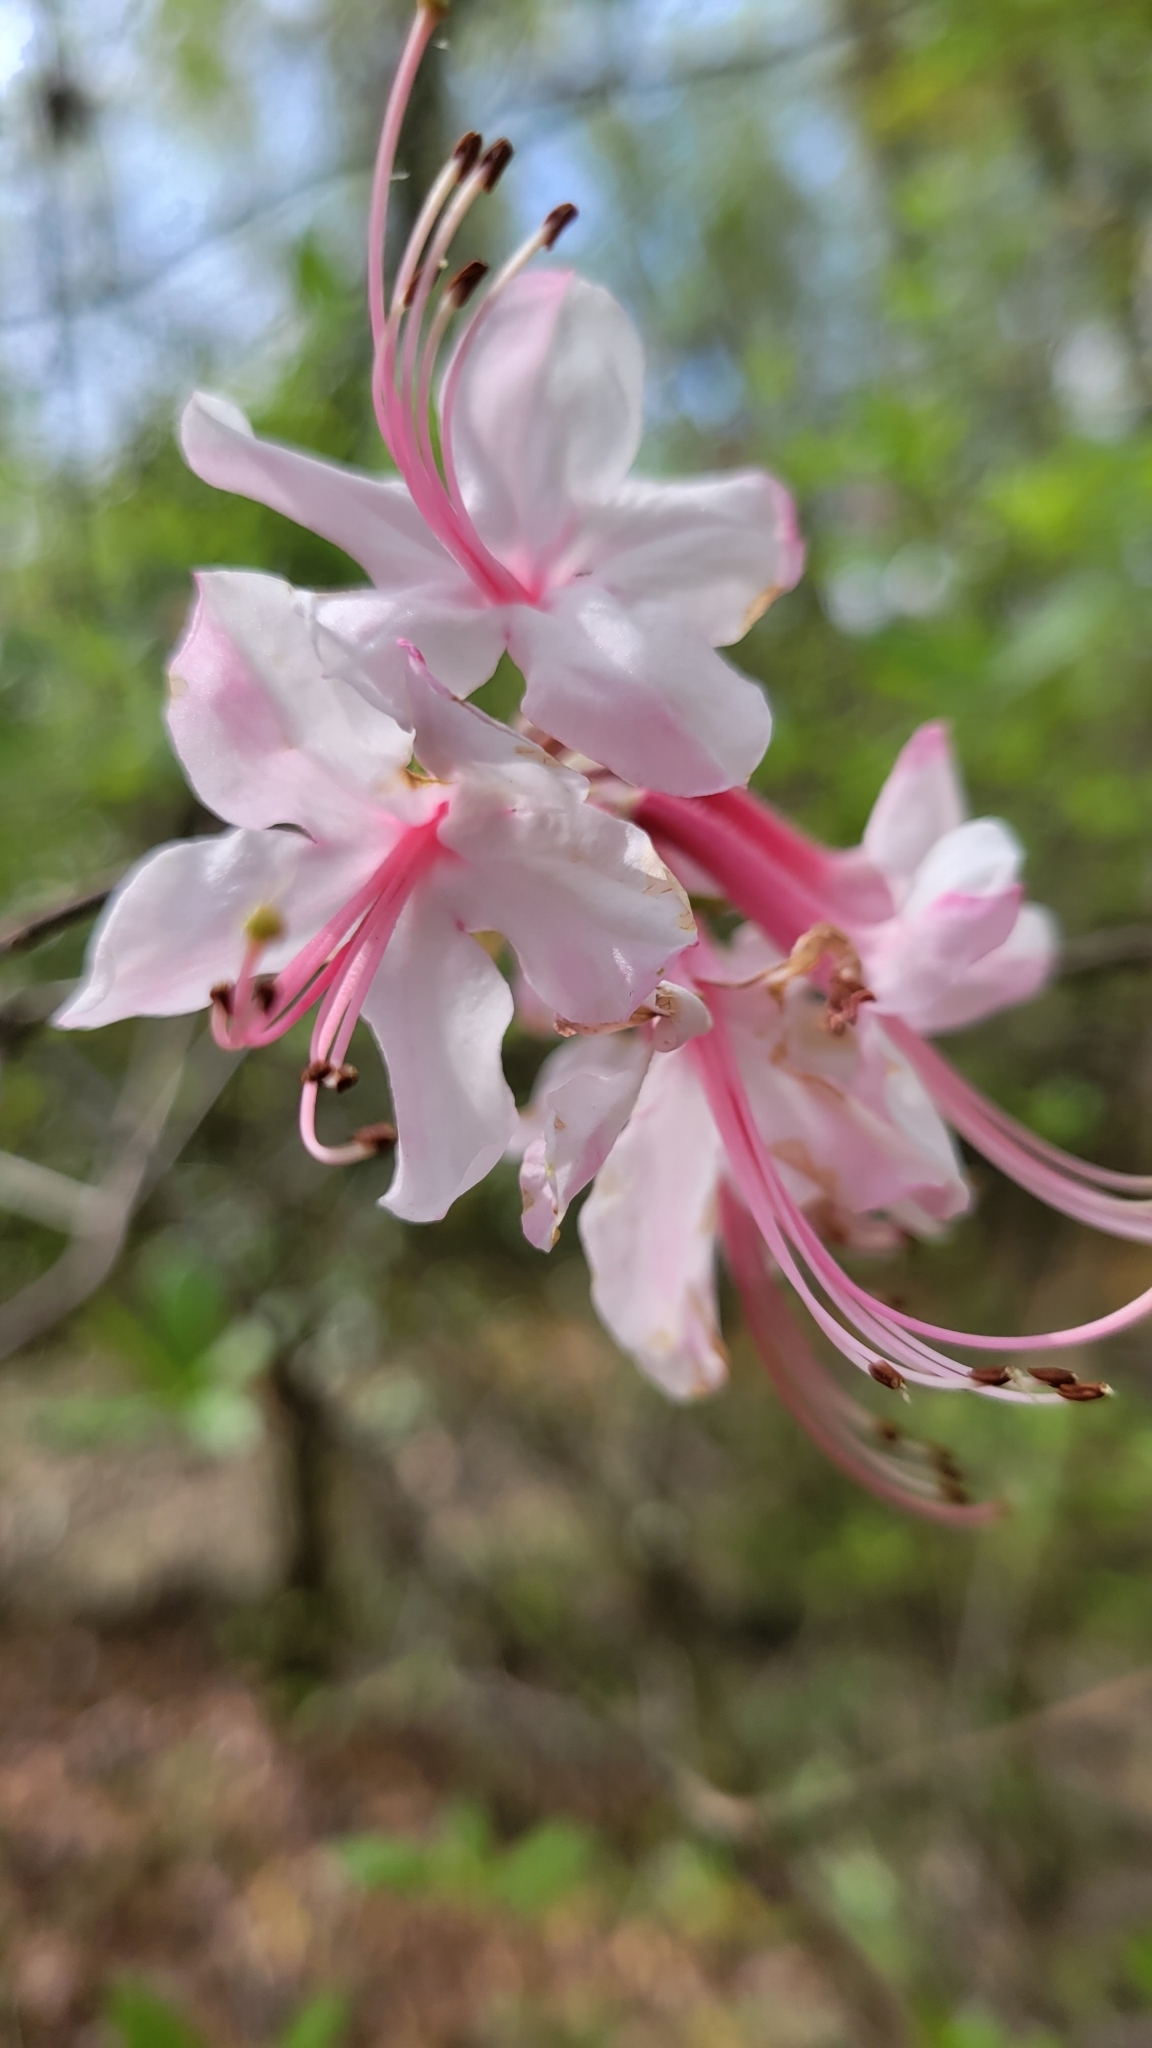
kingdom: Plantae
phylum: Tracheophyta
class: Magnoliopsida
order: Ericales
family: Ericaceae
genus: Rhododendron
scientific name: Rhododendron canescens
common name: Mountain azalea
